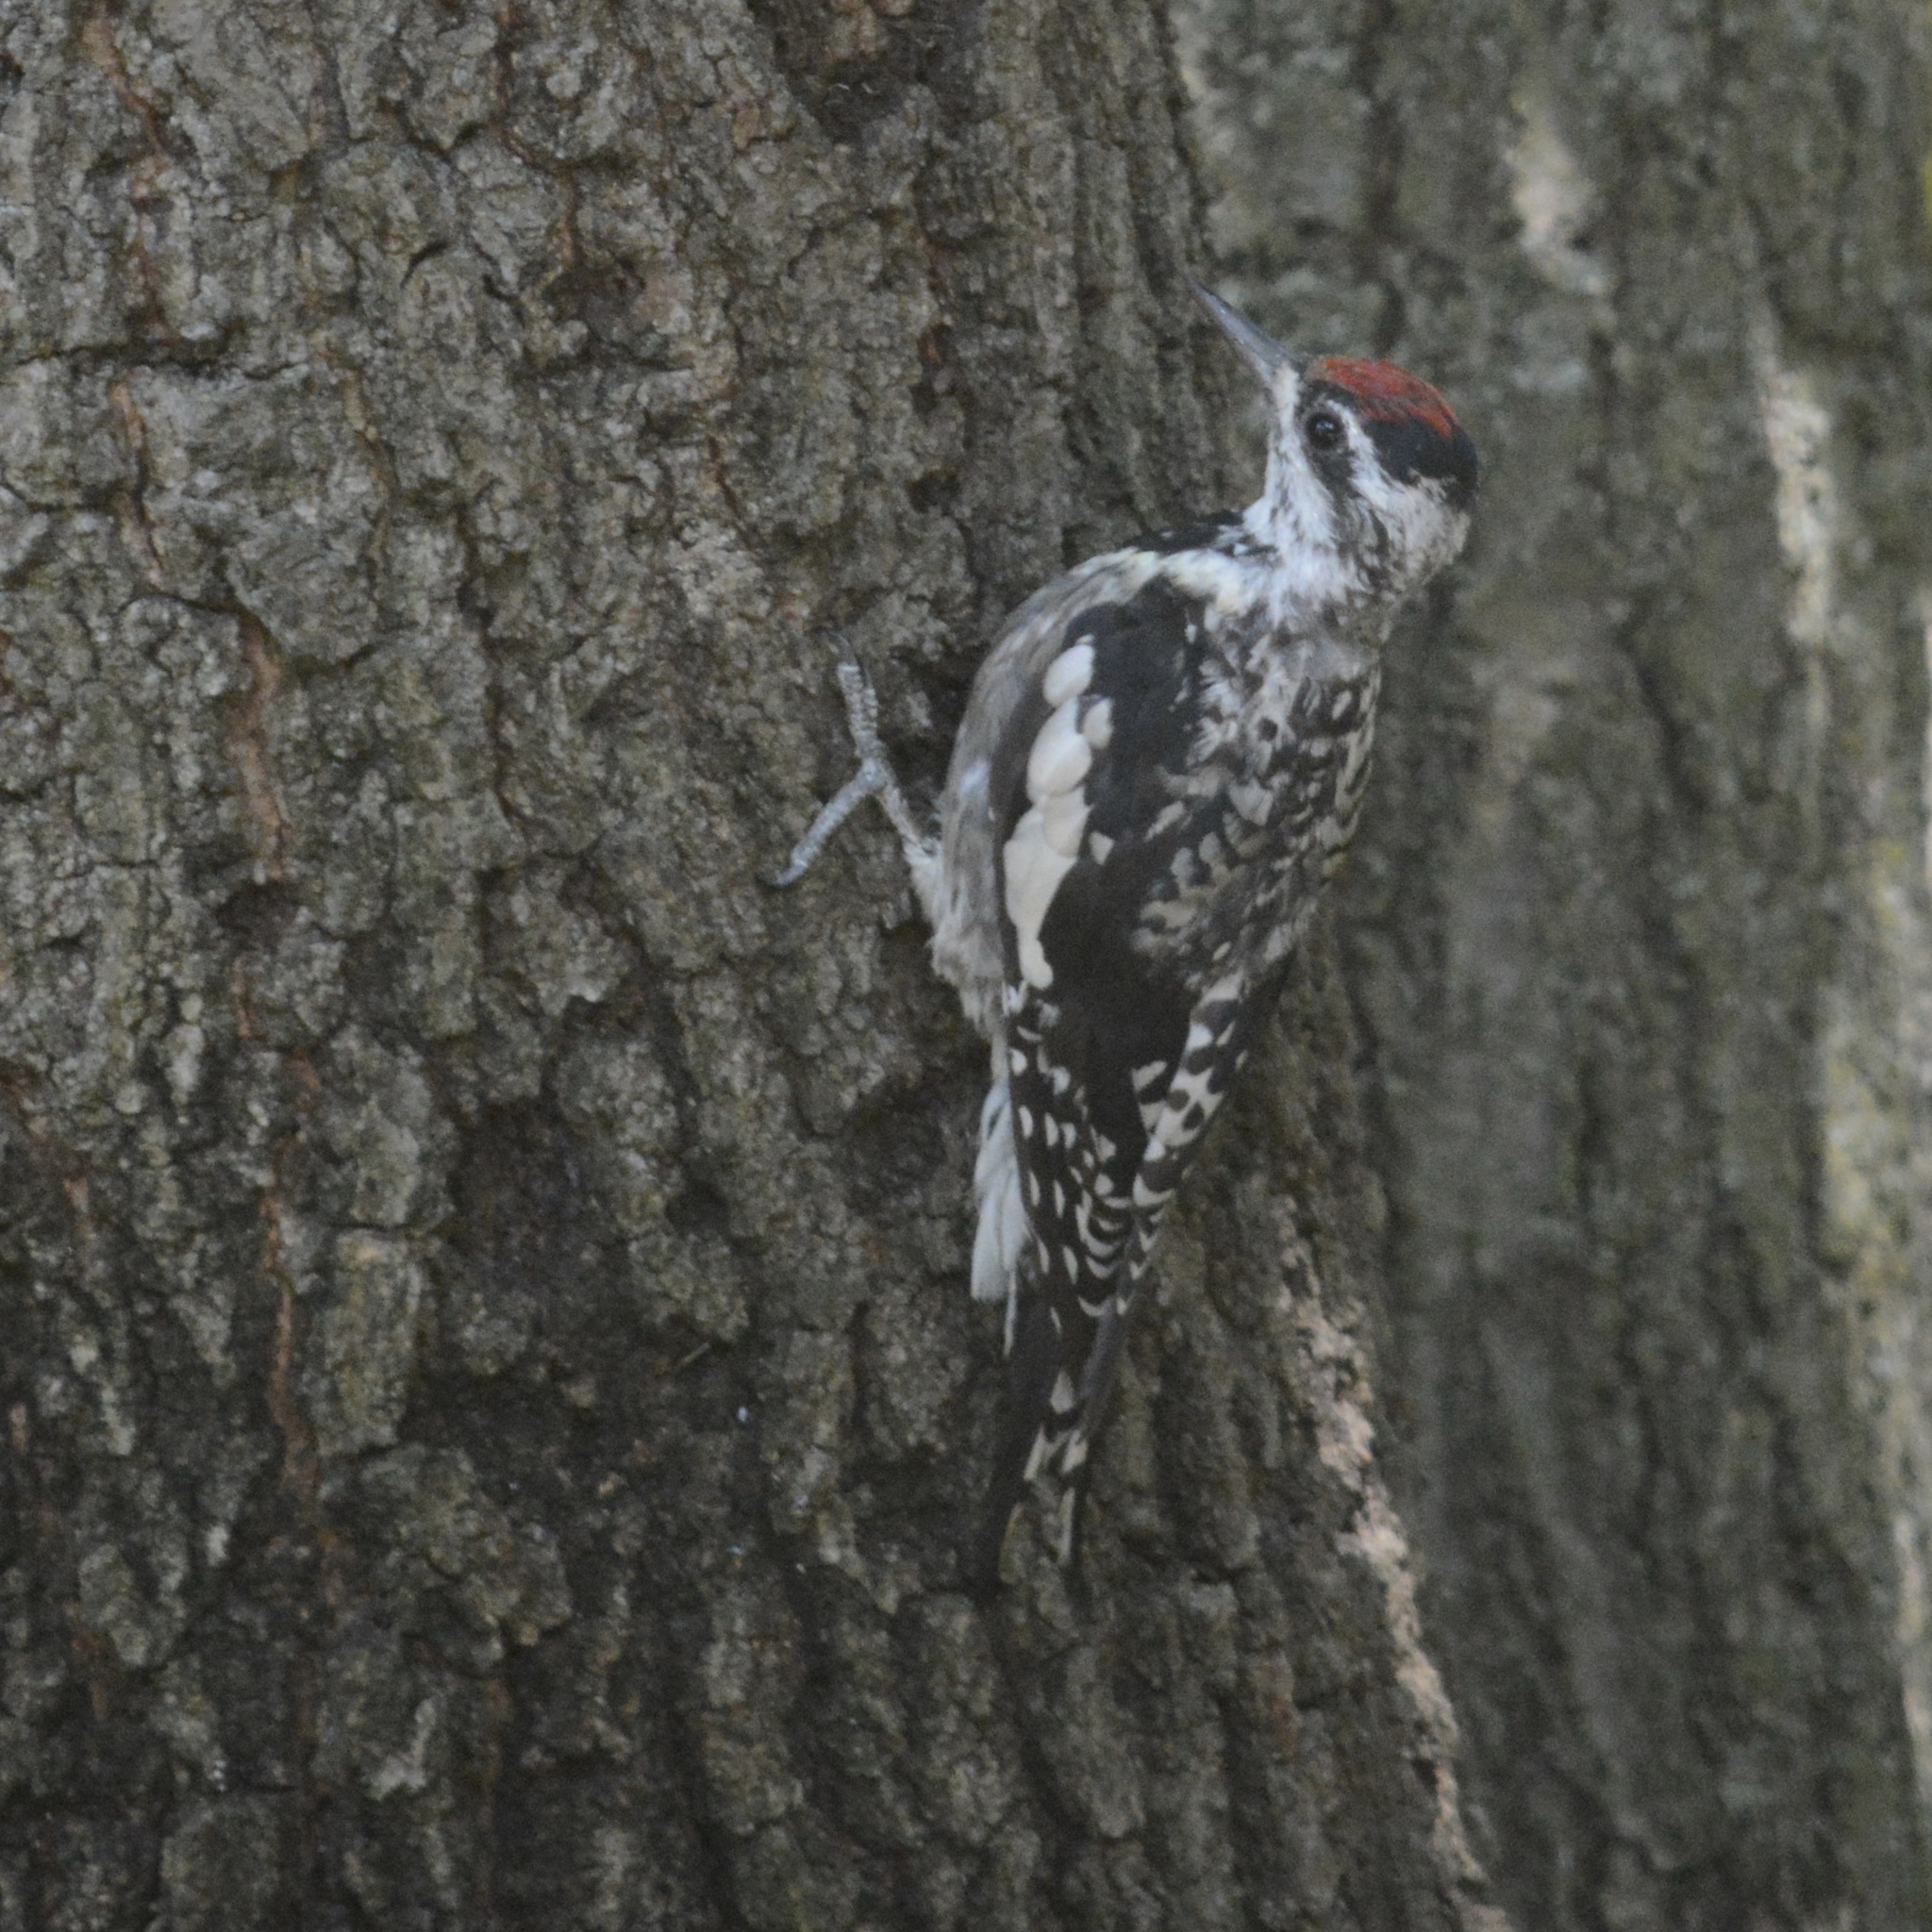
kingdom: Animalia
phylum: Chordata
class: Aves
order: Piciformes
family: Picidae
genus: Sphyrapicus
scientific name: Sphyrapicus varius
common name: Yellow-bellied sapsucker
